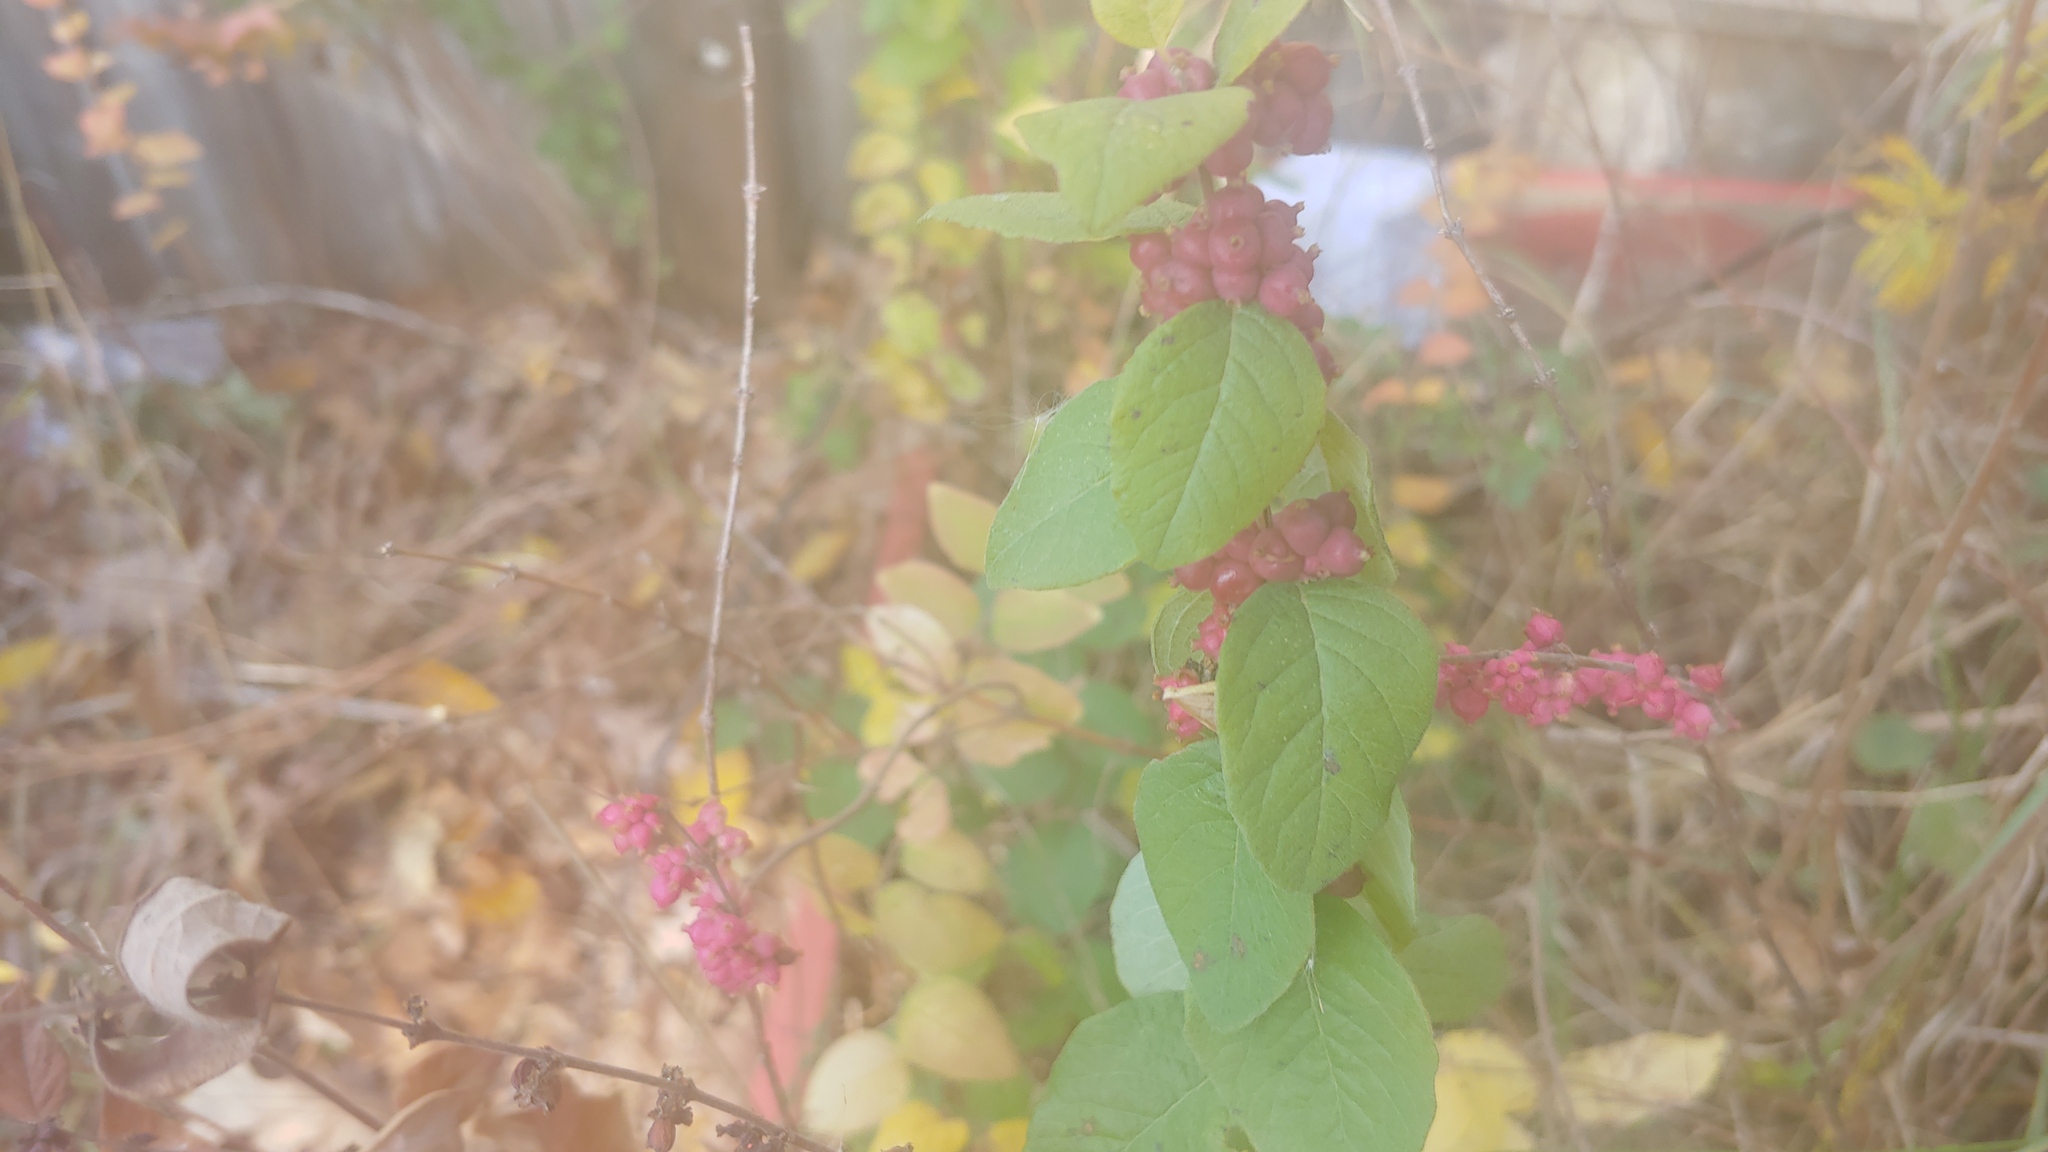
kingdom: Plantae
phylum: Tracheophyta
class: Magnoliopsida
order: Dipsacales
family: Caprifoliaceae
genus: Symphoricarpos
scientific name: Symphoricarpos orbiculatus
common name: Coralberry
